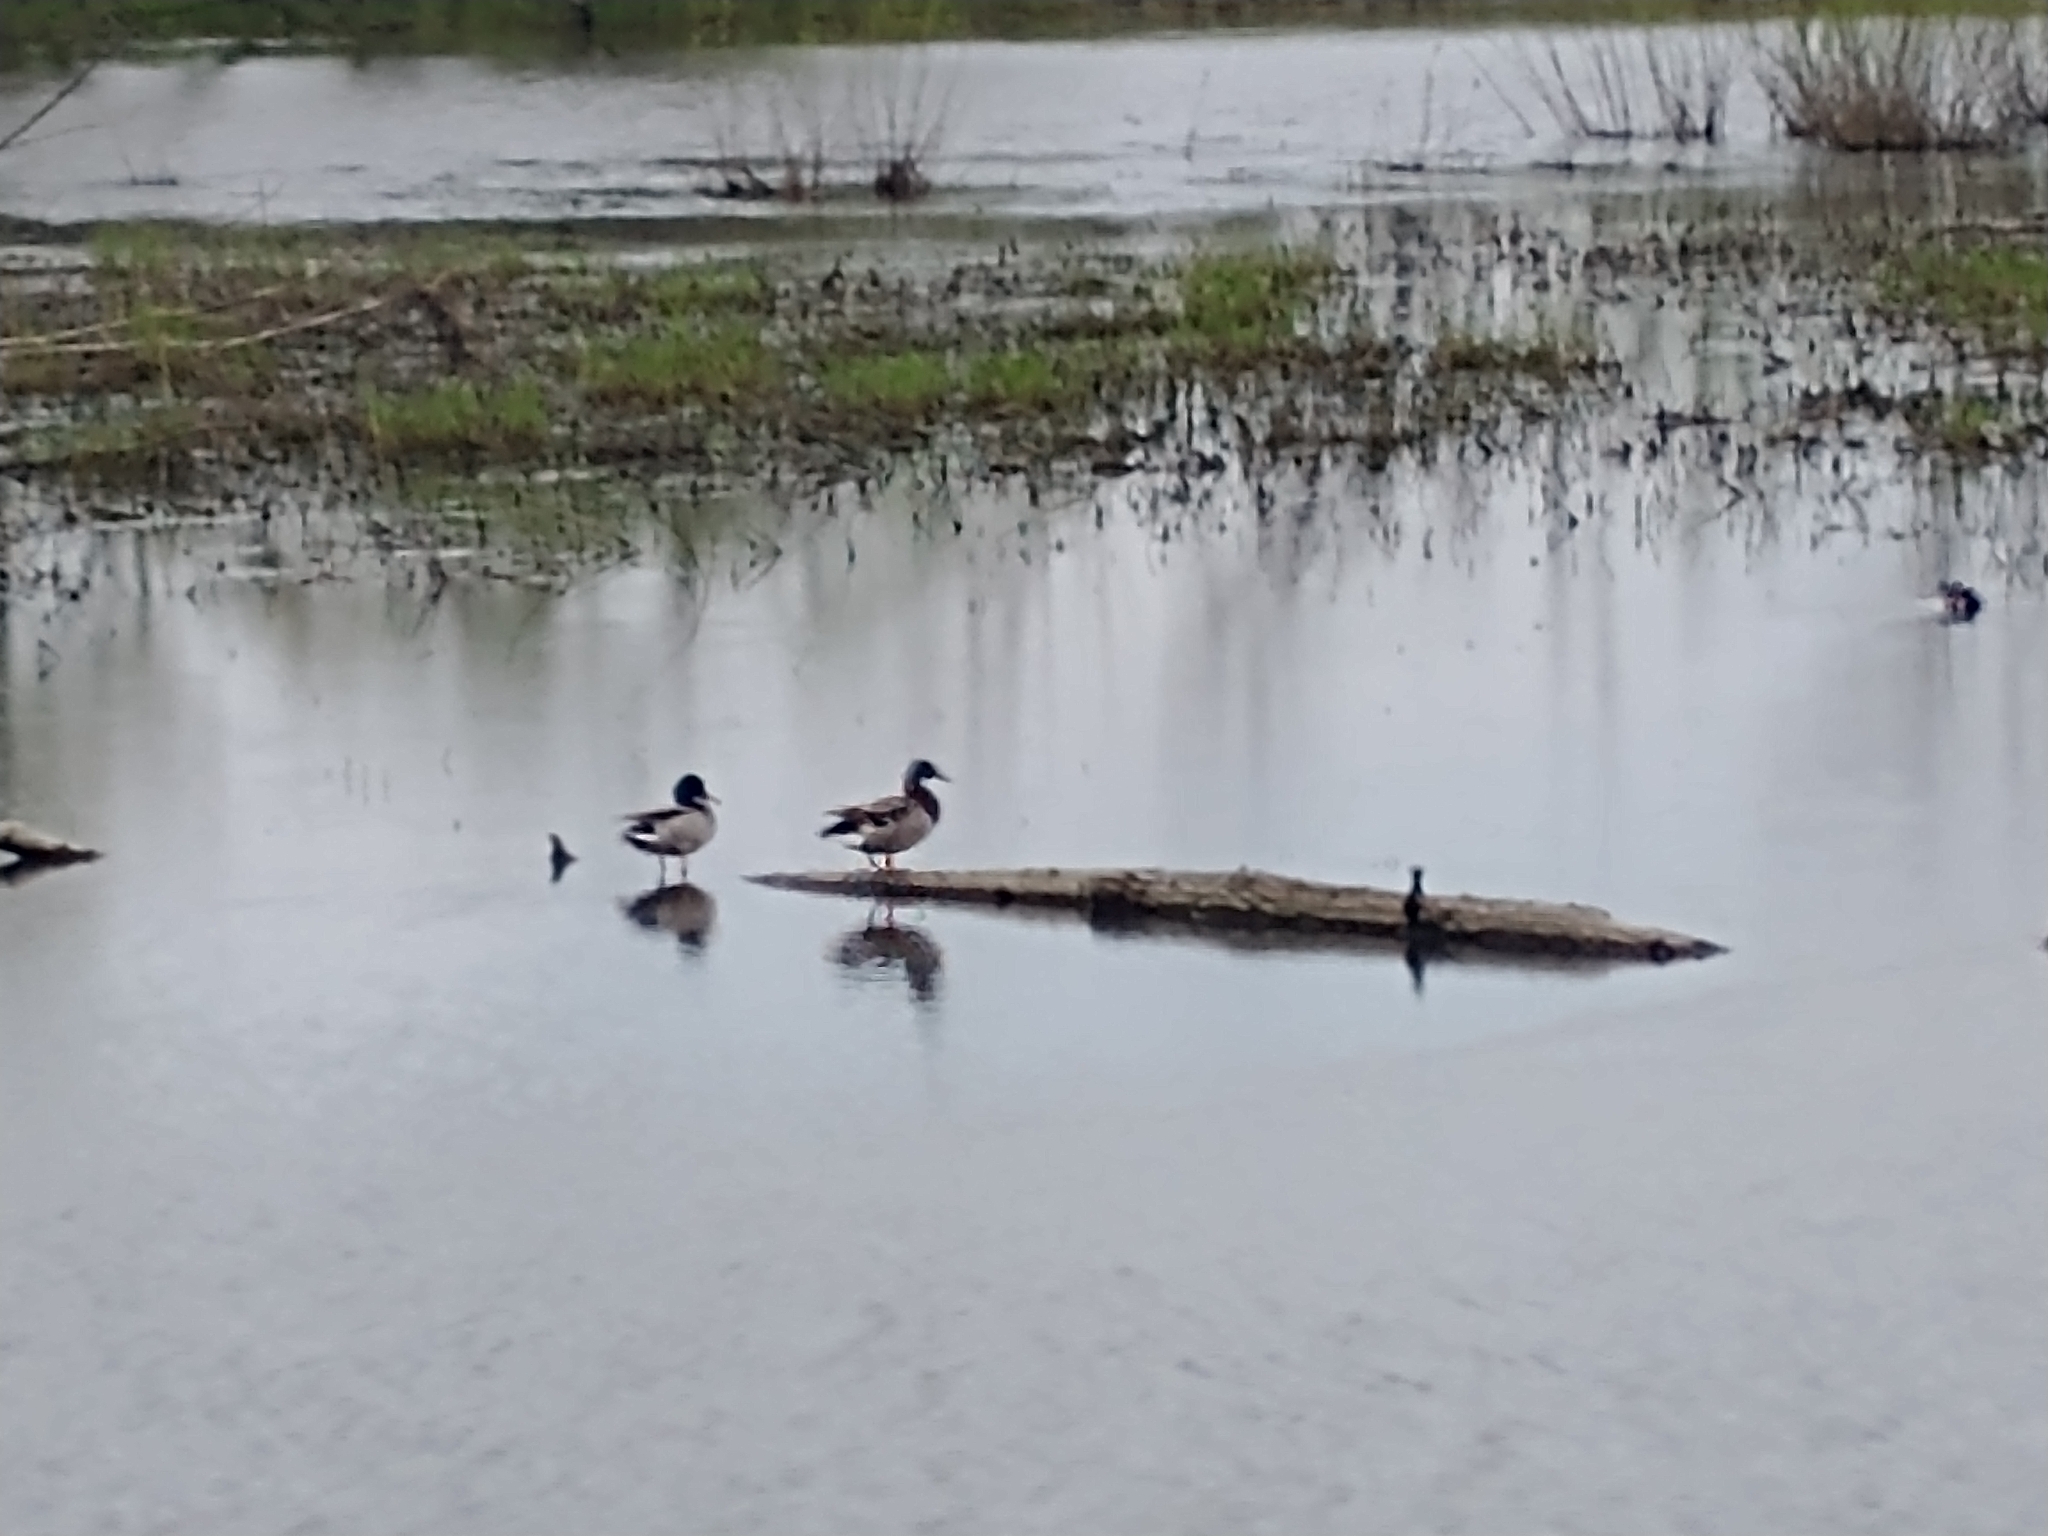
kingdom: Animalia
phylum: Chordata
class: Aves
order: Anseriformes
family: Anatidae
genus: Anas
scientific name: Anas platyrhynchos
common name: Mallard
